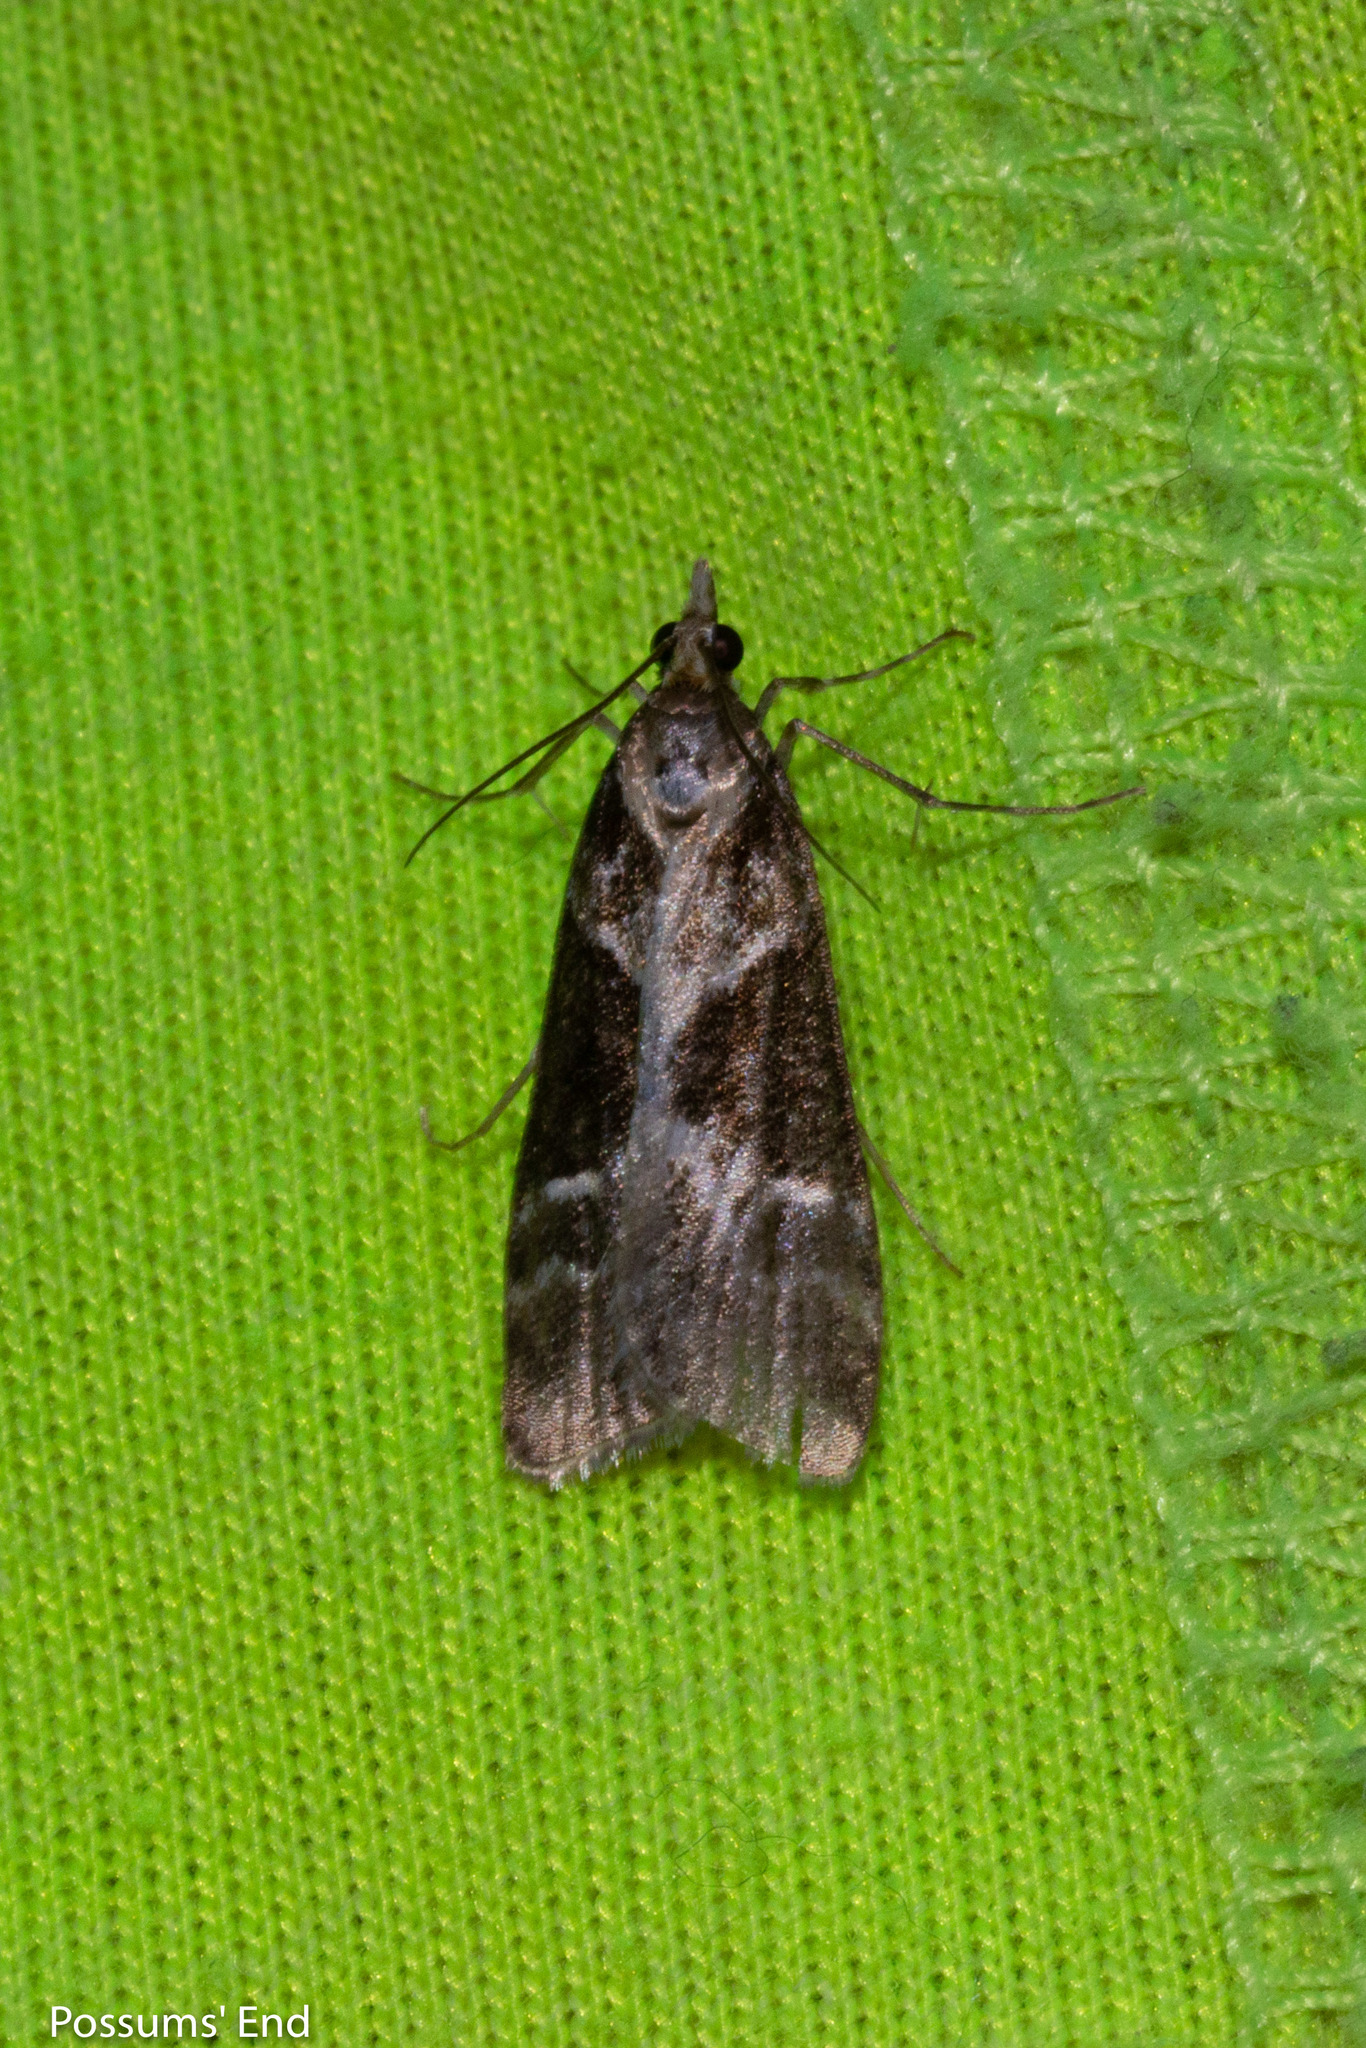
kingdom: Animalia
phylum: Arthropoda
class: Insecta
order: Lepidoptera
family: Crambidae
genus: Eudonia
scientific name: Eudonia melanaegis
